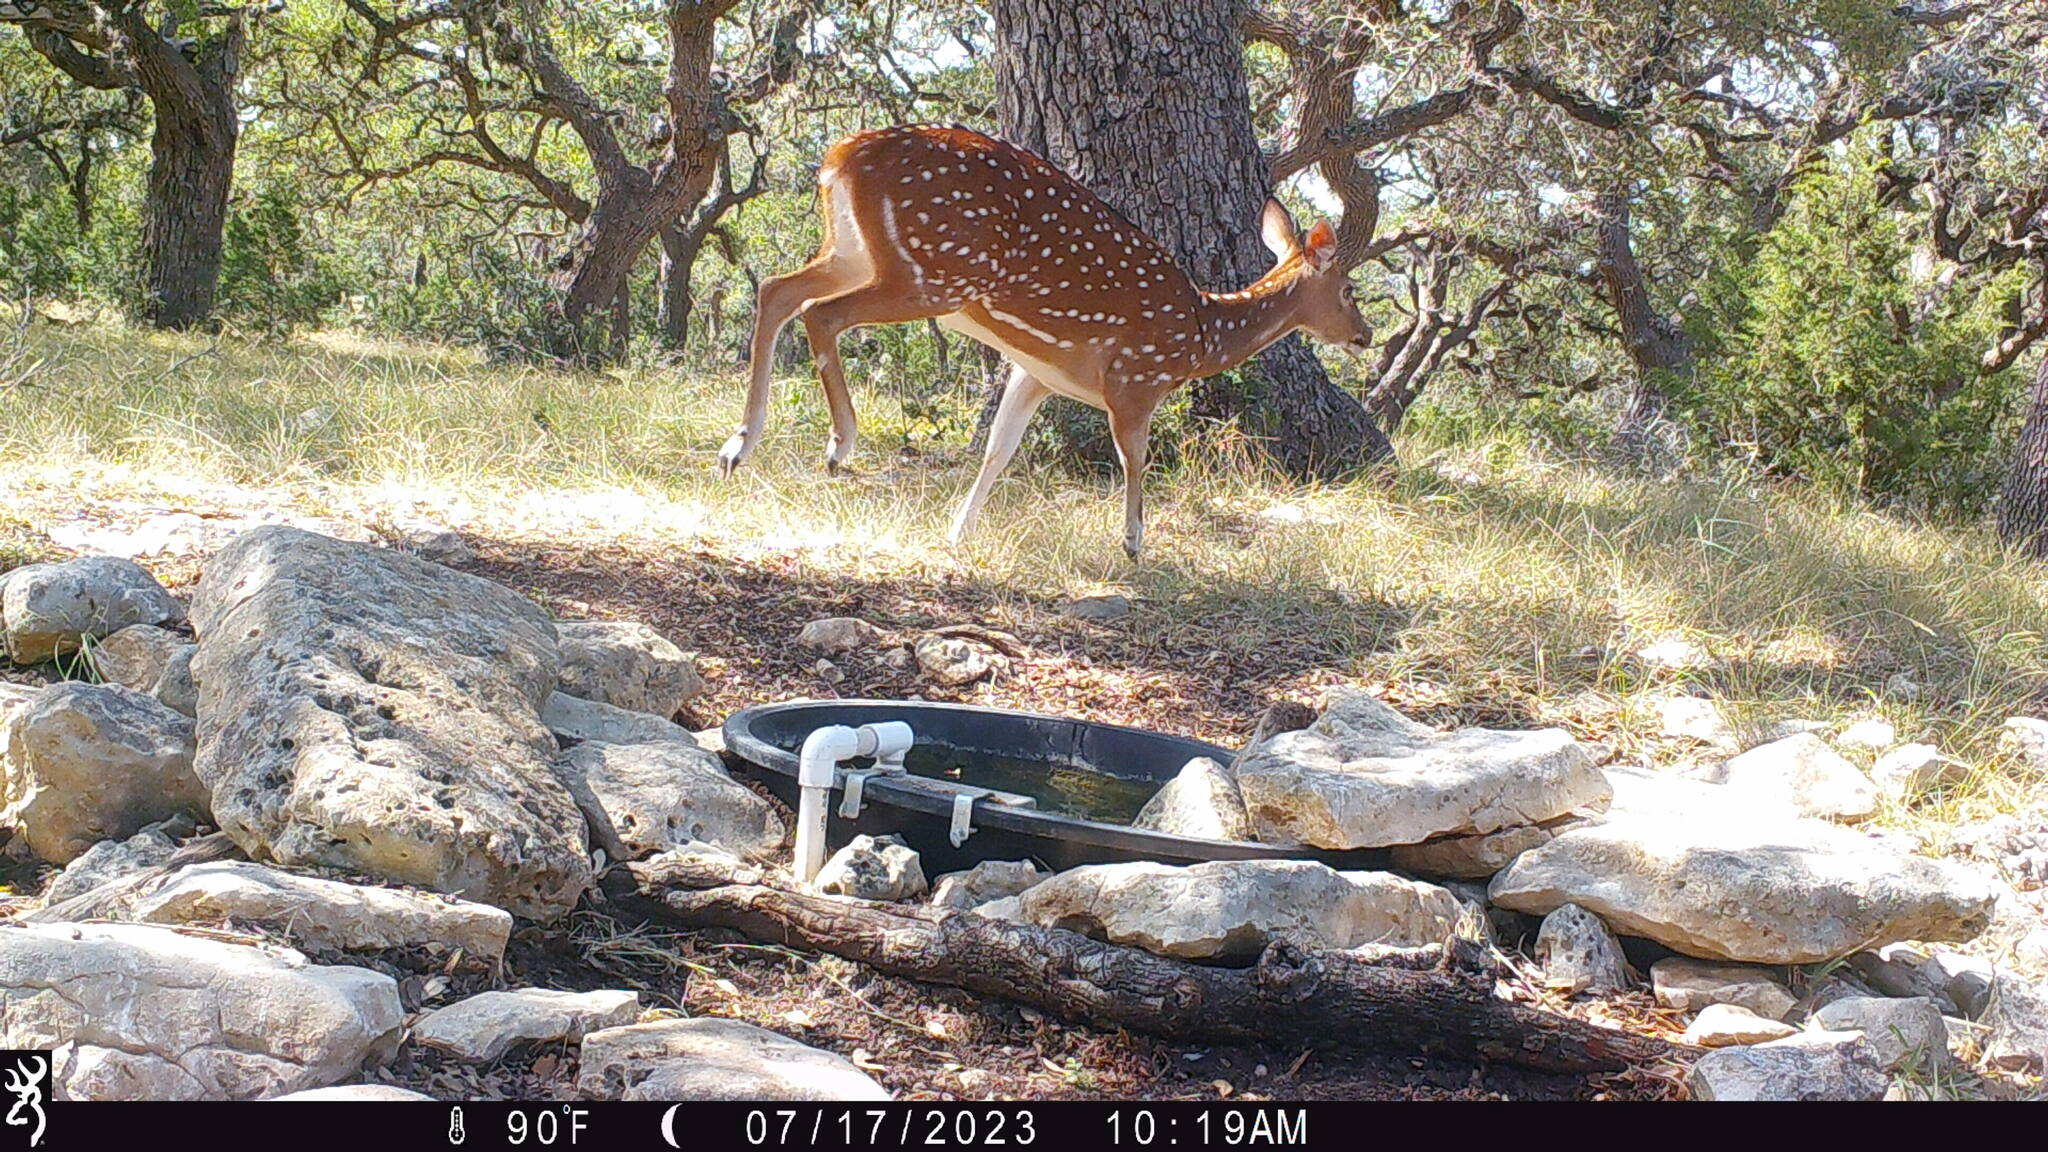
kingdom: Animalia
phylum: Chordata
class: Mammalia
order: Artiodactyla
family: Cervidae
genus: Axis
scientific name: Axis axis
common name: Chital
